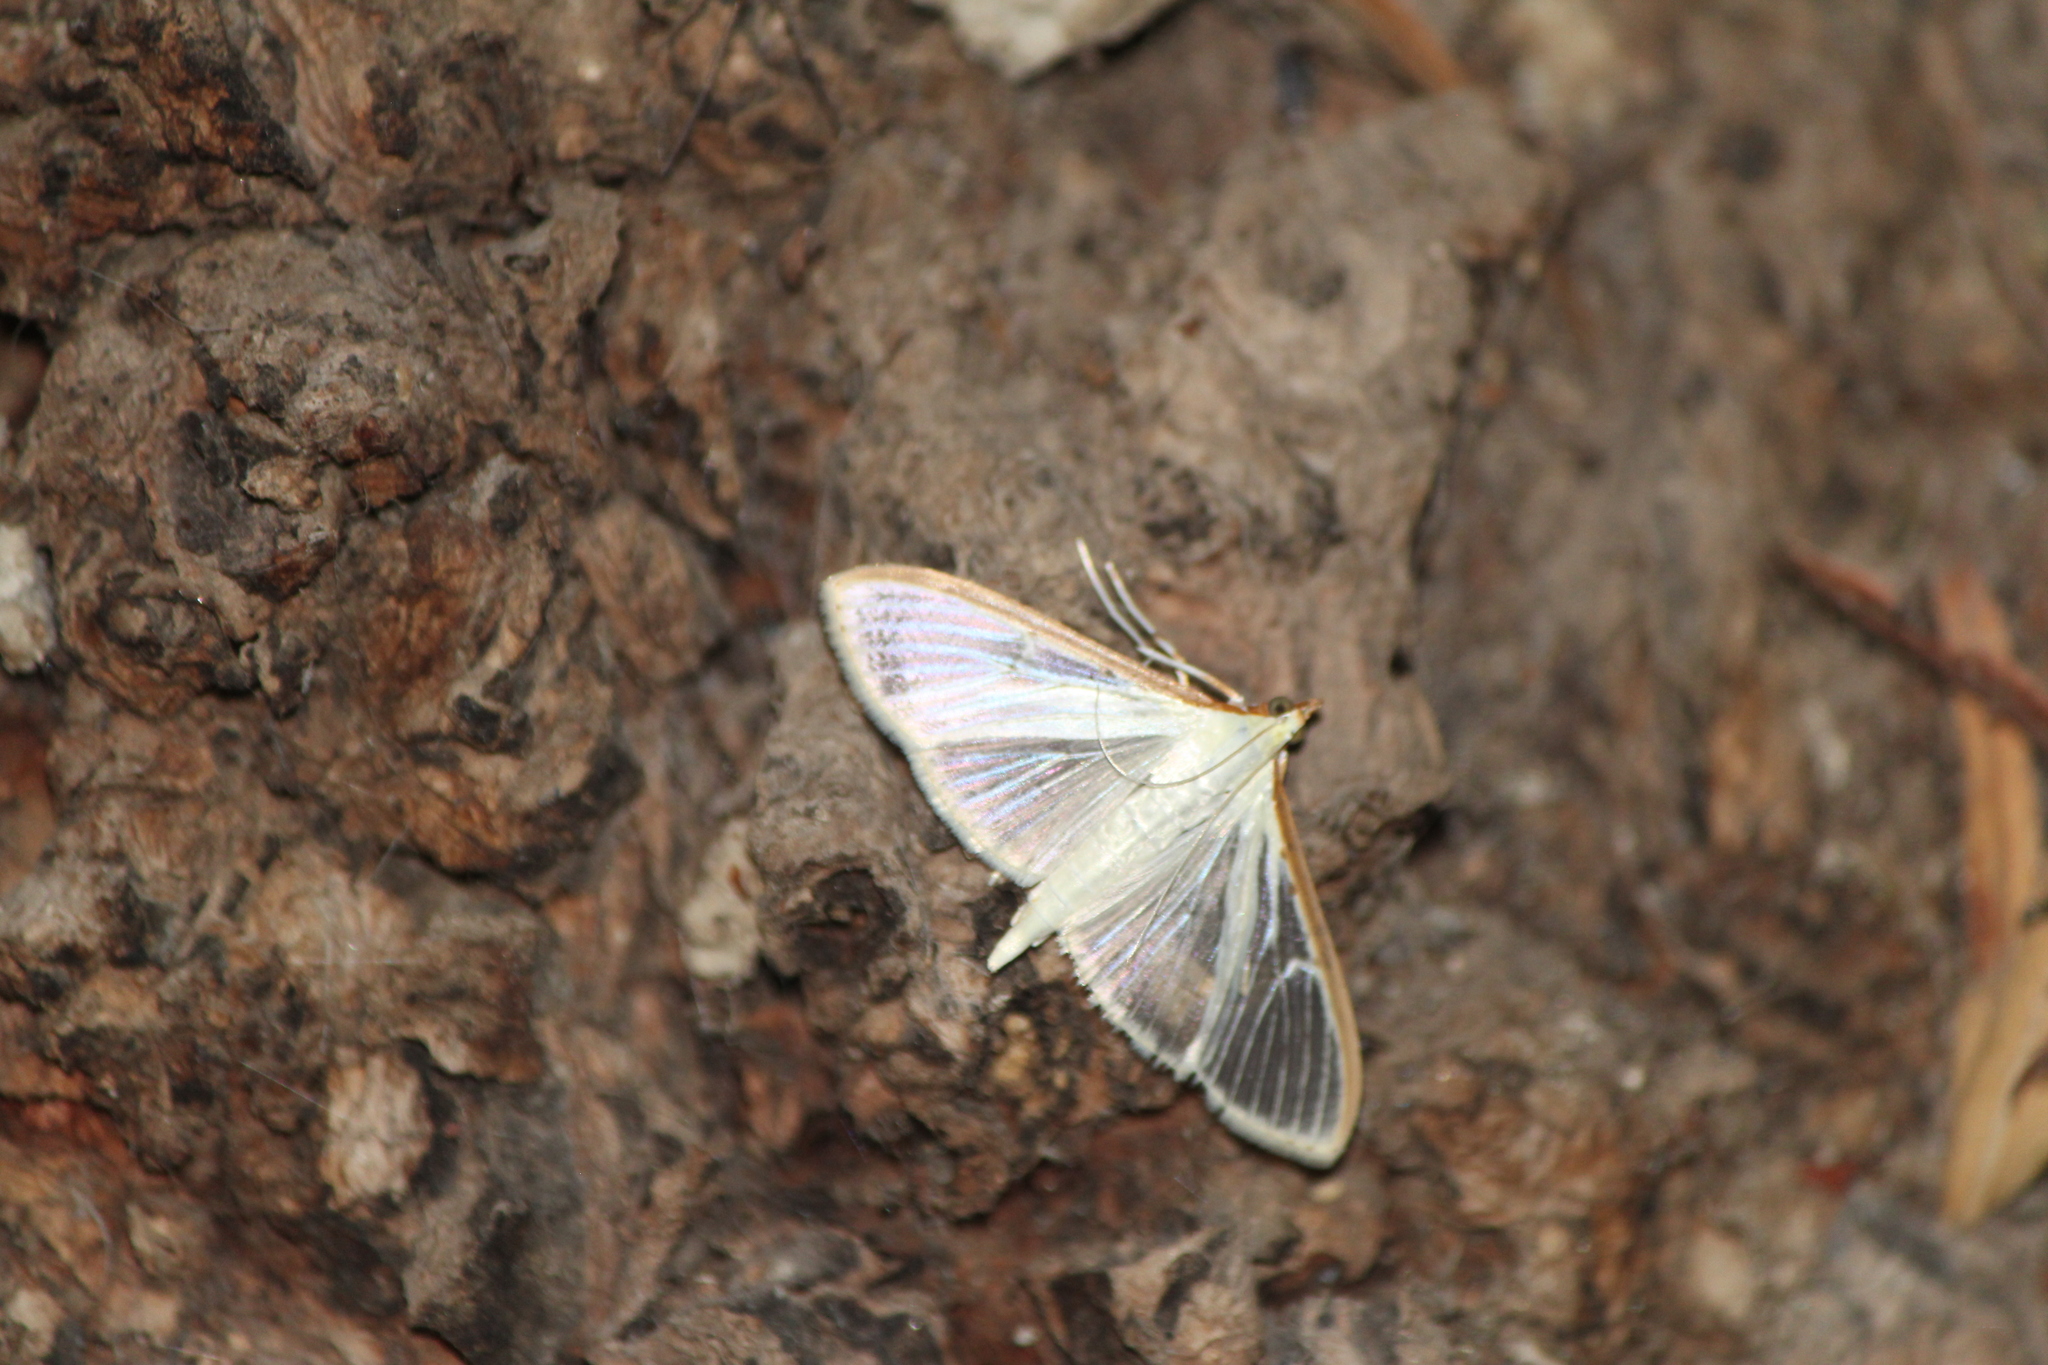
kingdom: Animalia
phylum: Arthropoda
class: Insecta
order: Lepidoptera
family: Crambidae
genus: Palpita
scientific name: Palpita quadristigmalis
